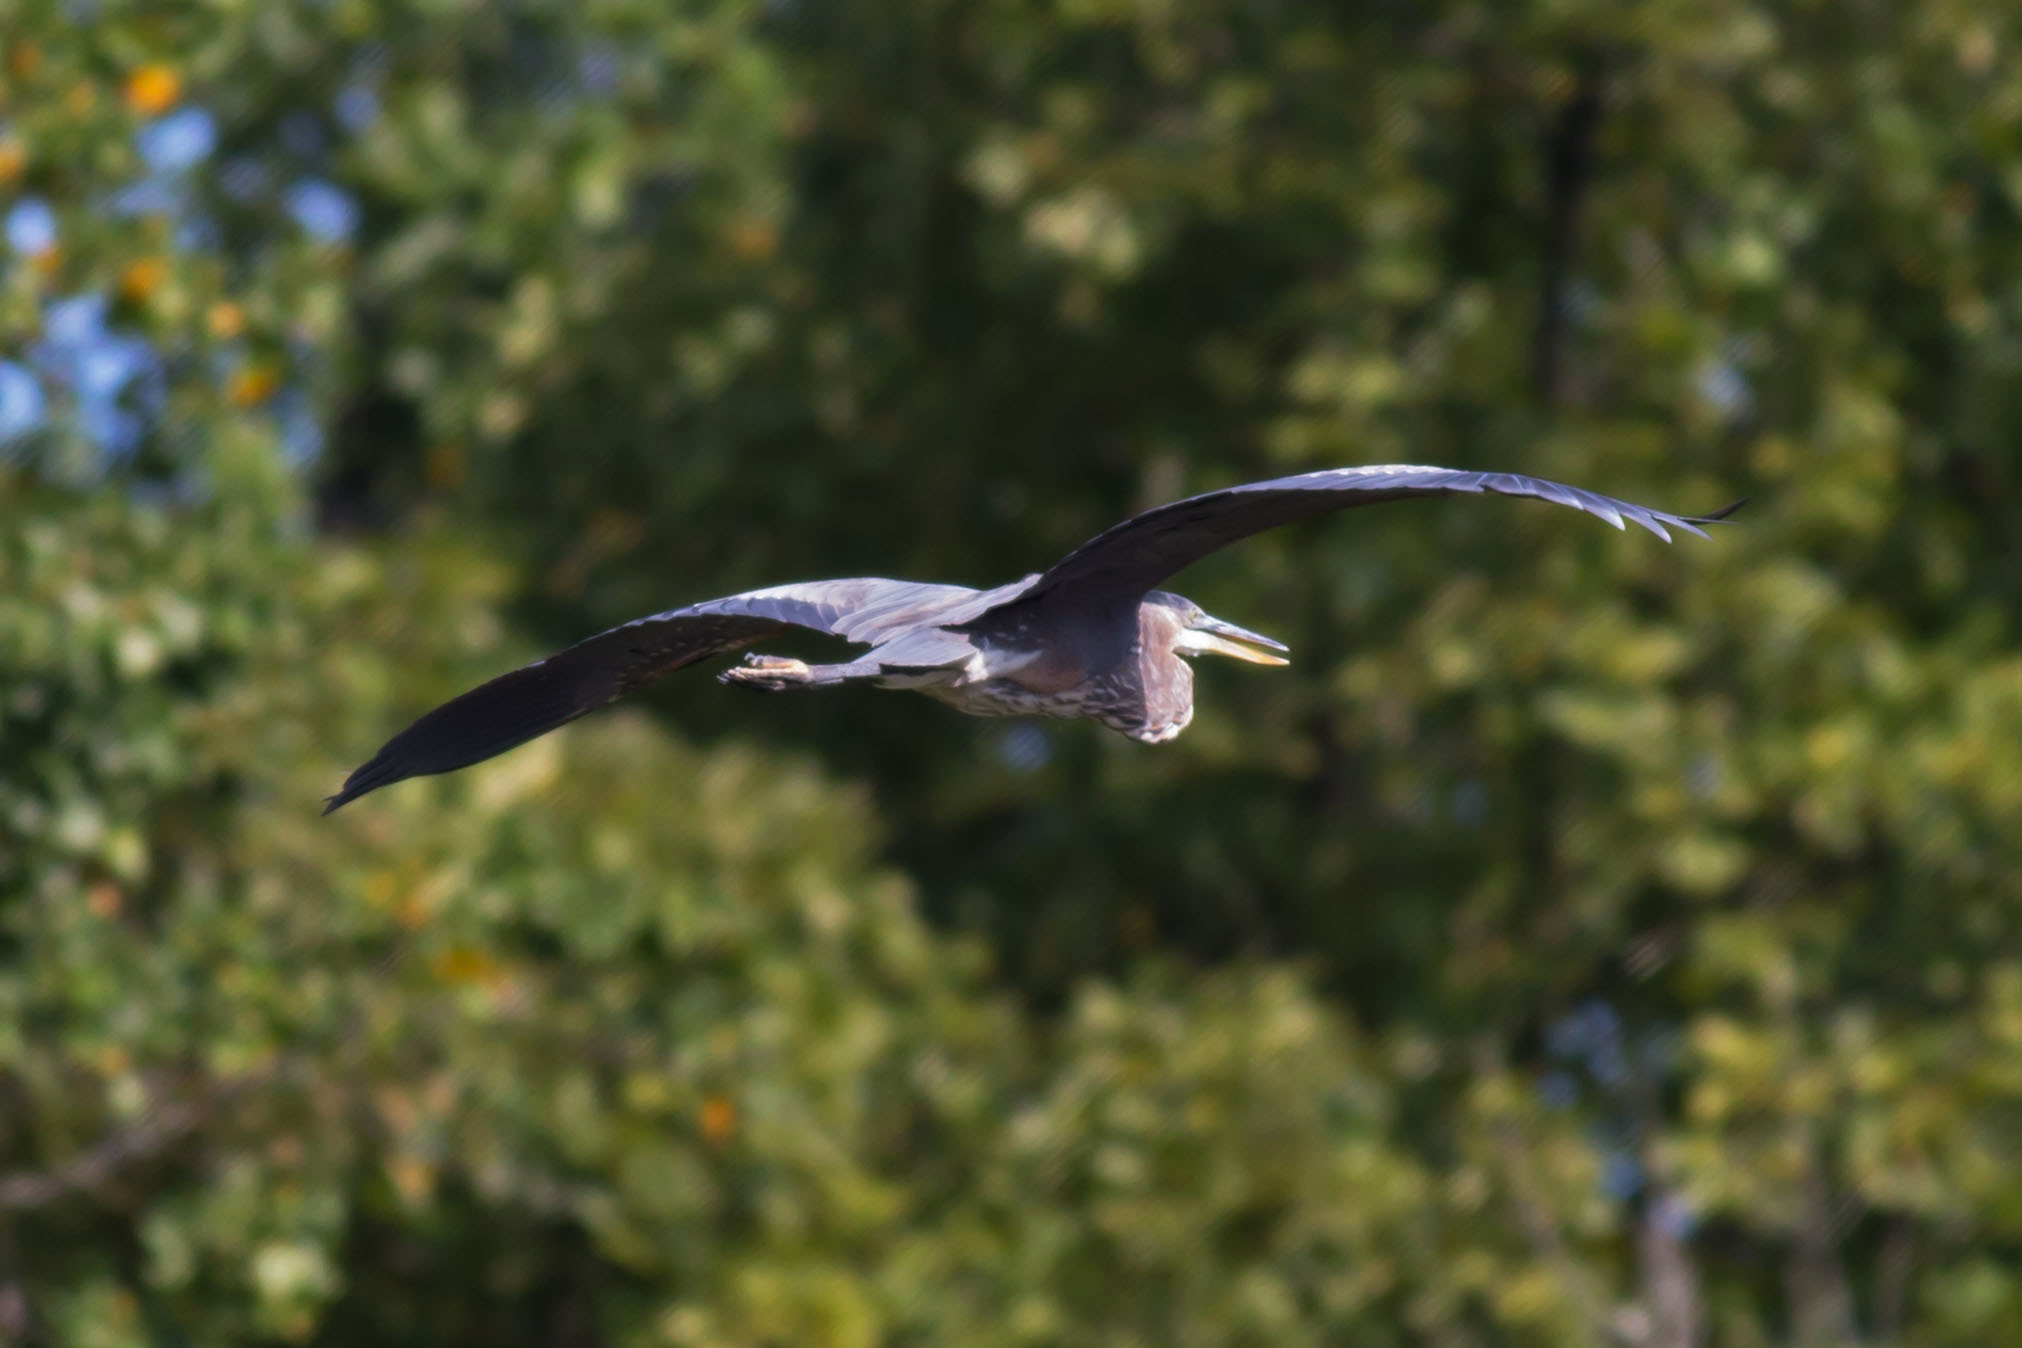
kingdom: Animalia
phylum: Chordata
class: Aves
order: Pelecaniformes
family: Ardeidae
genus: Ardea
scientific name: Ardea herodias
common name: Great blue heron
